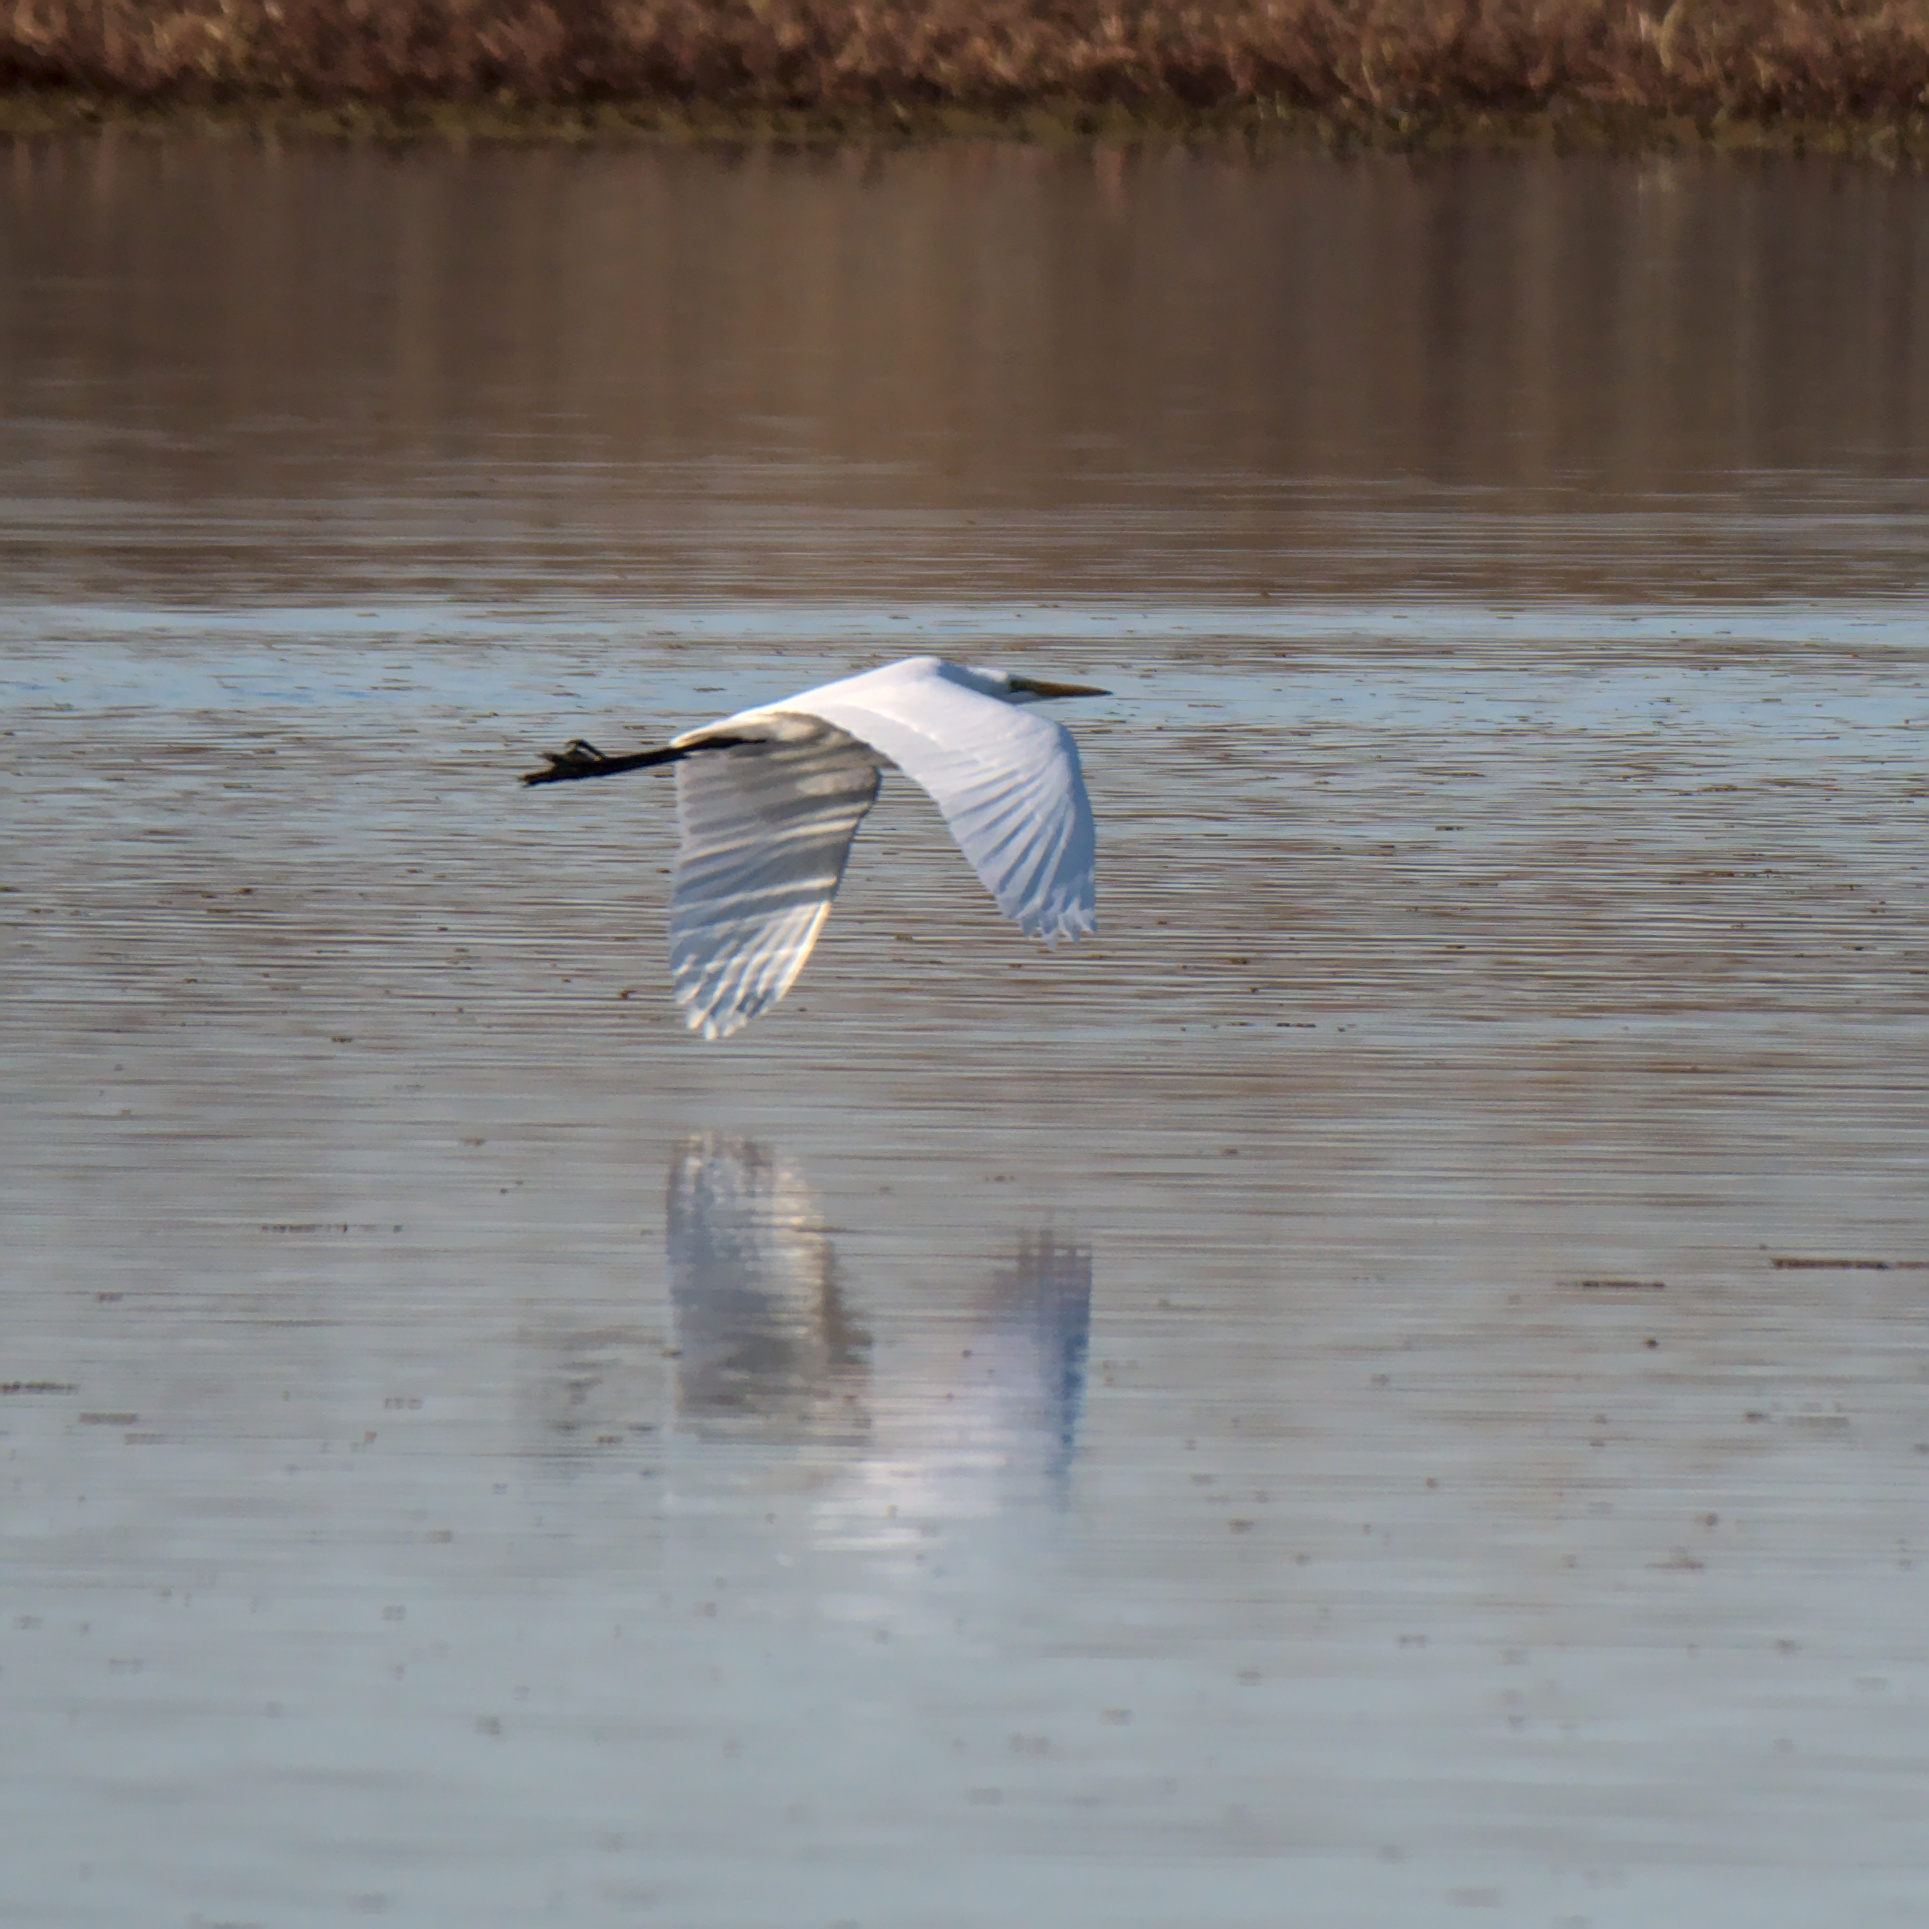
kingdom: Animalia
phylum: Chordata
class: Aves
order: Pelecaniformes
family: Ardeidae
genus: Ardea
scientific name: Ardea alba
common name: Great egret
